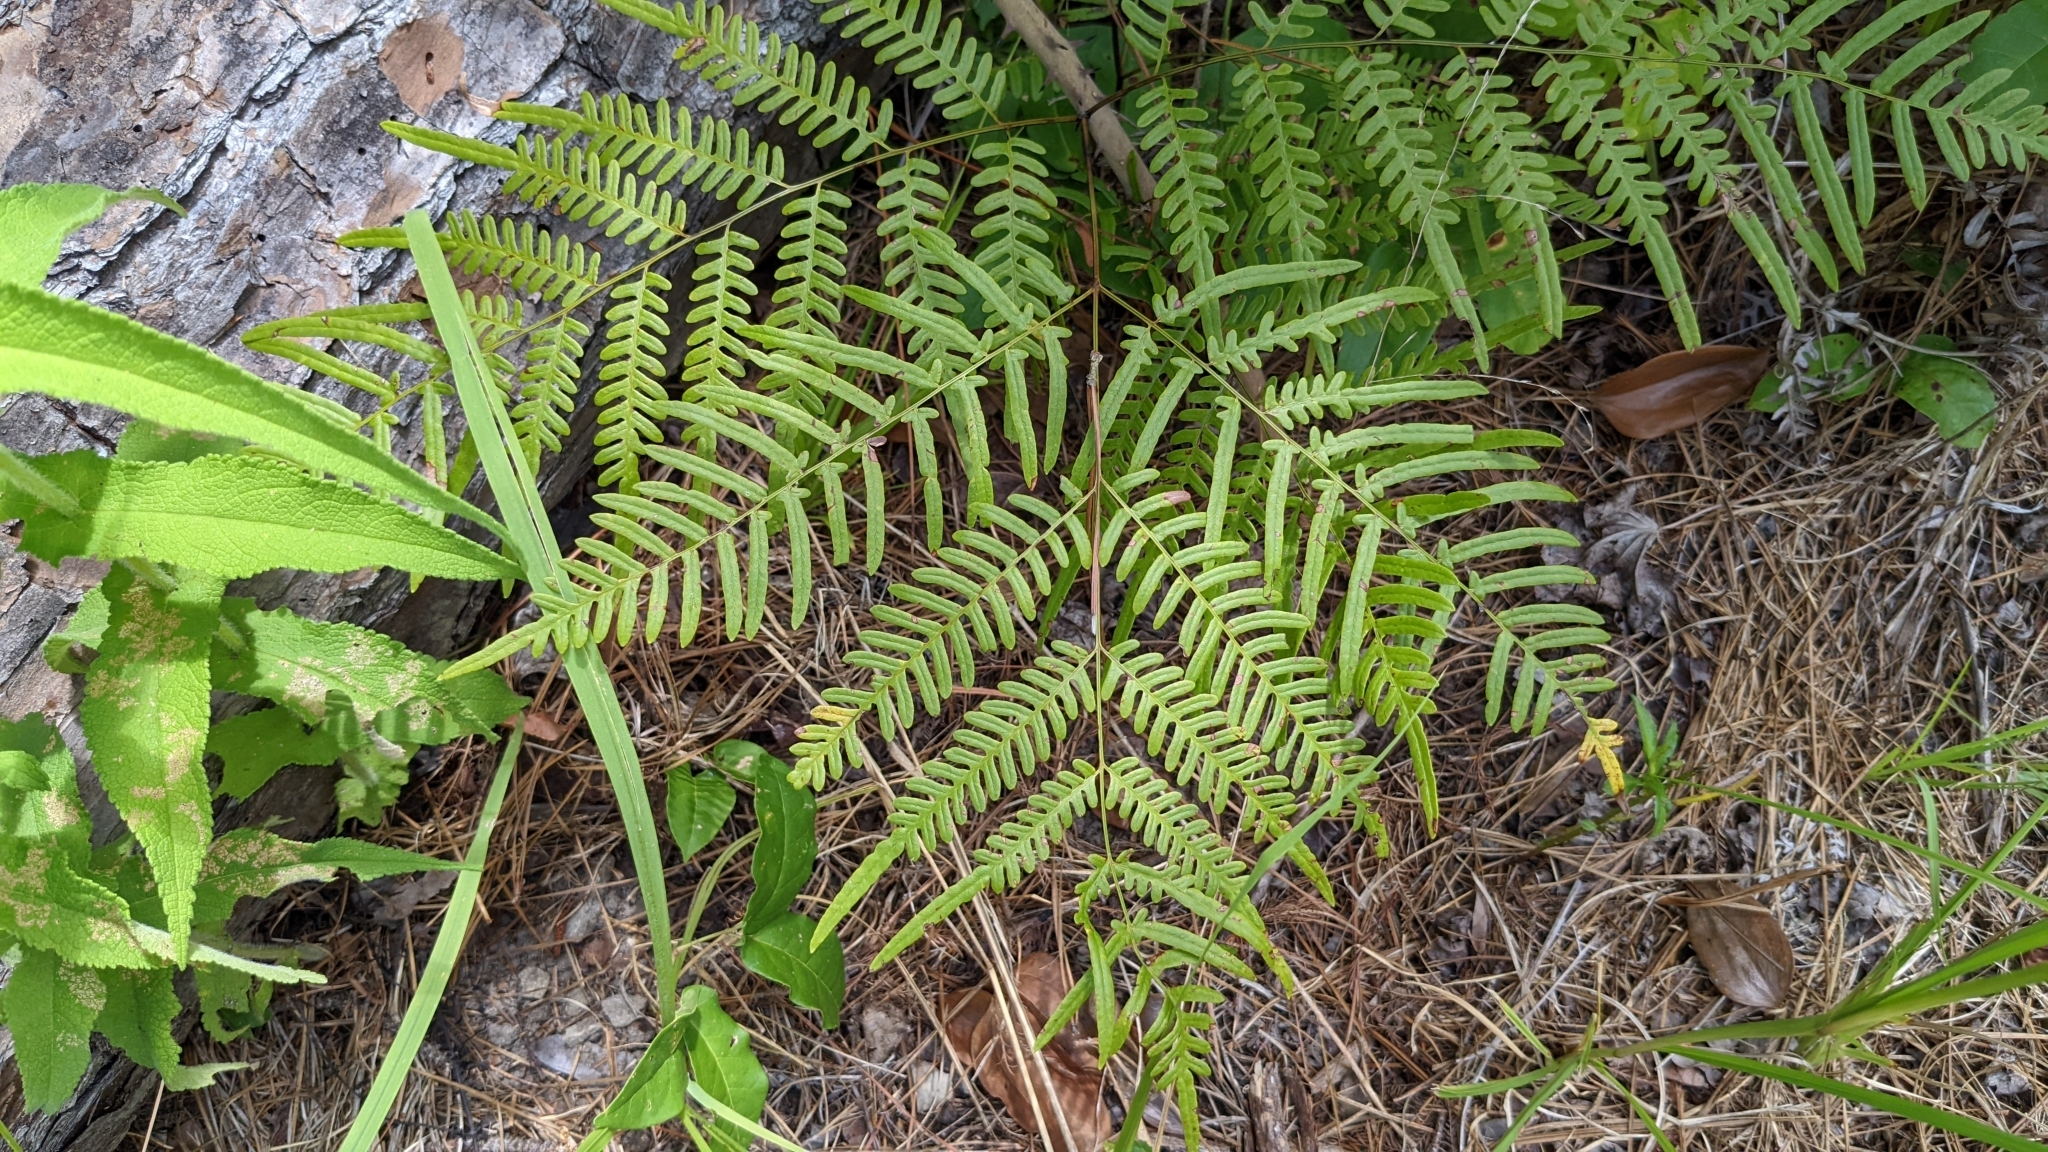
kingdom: Plantae
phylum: Tracheophyta
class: Polypodiopsida
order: Polypodiales
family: Dennstaedtiaceae
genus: Pteridium
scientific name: Pteridium aquilinum
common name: Bracken
